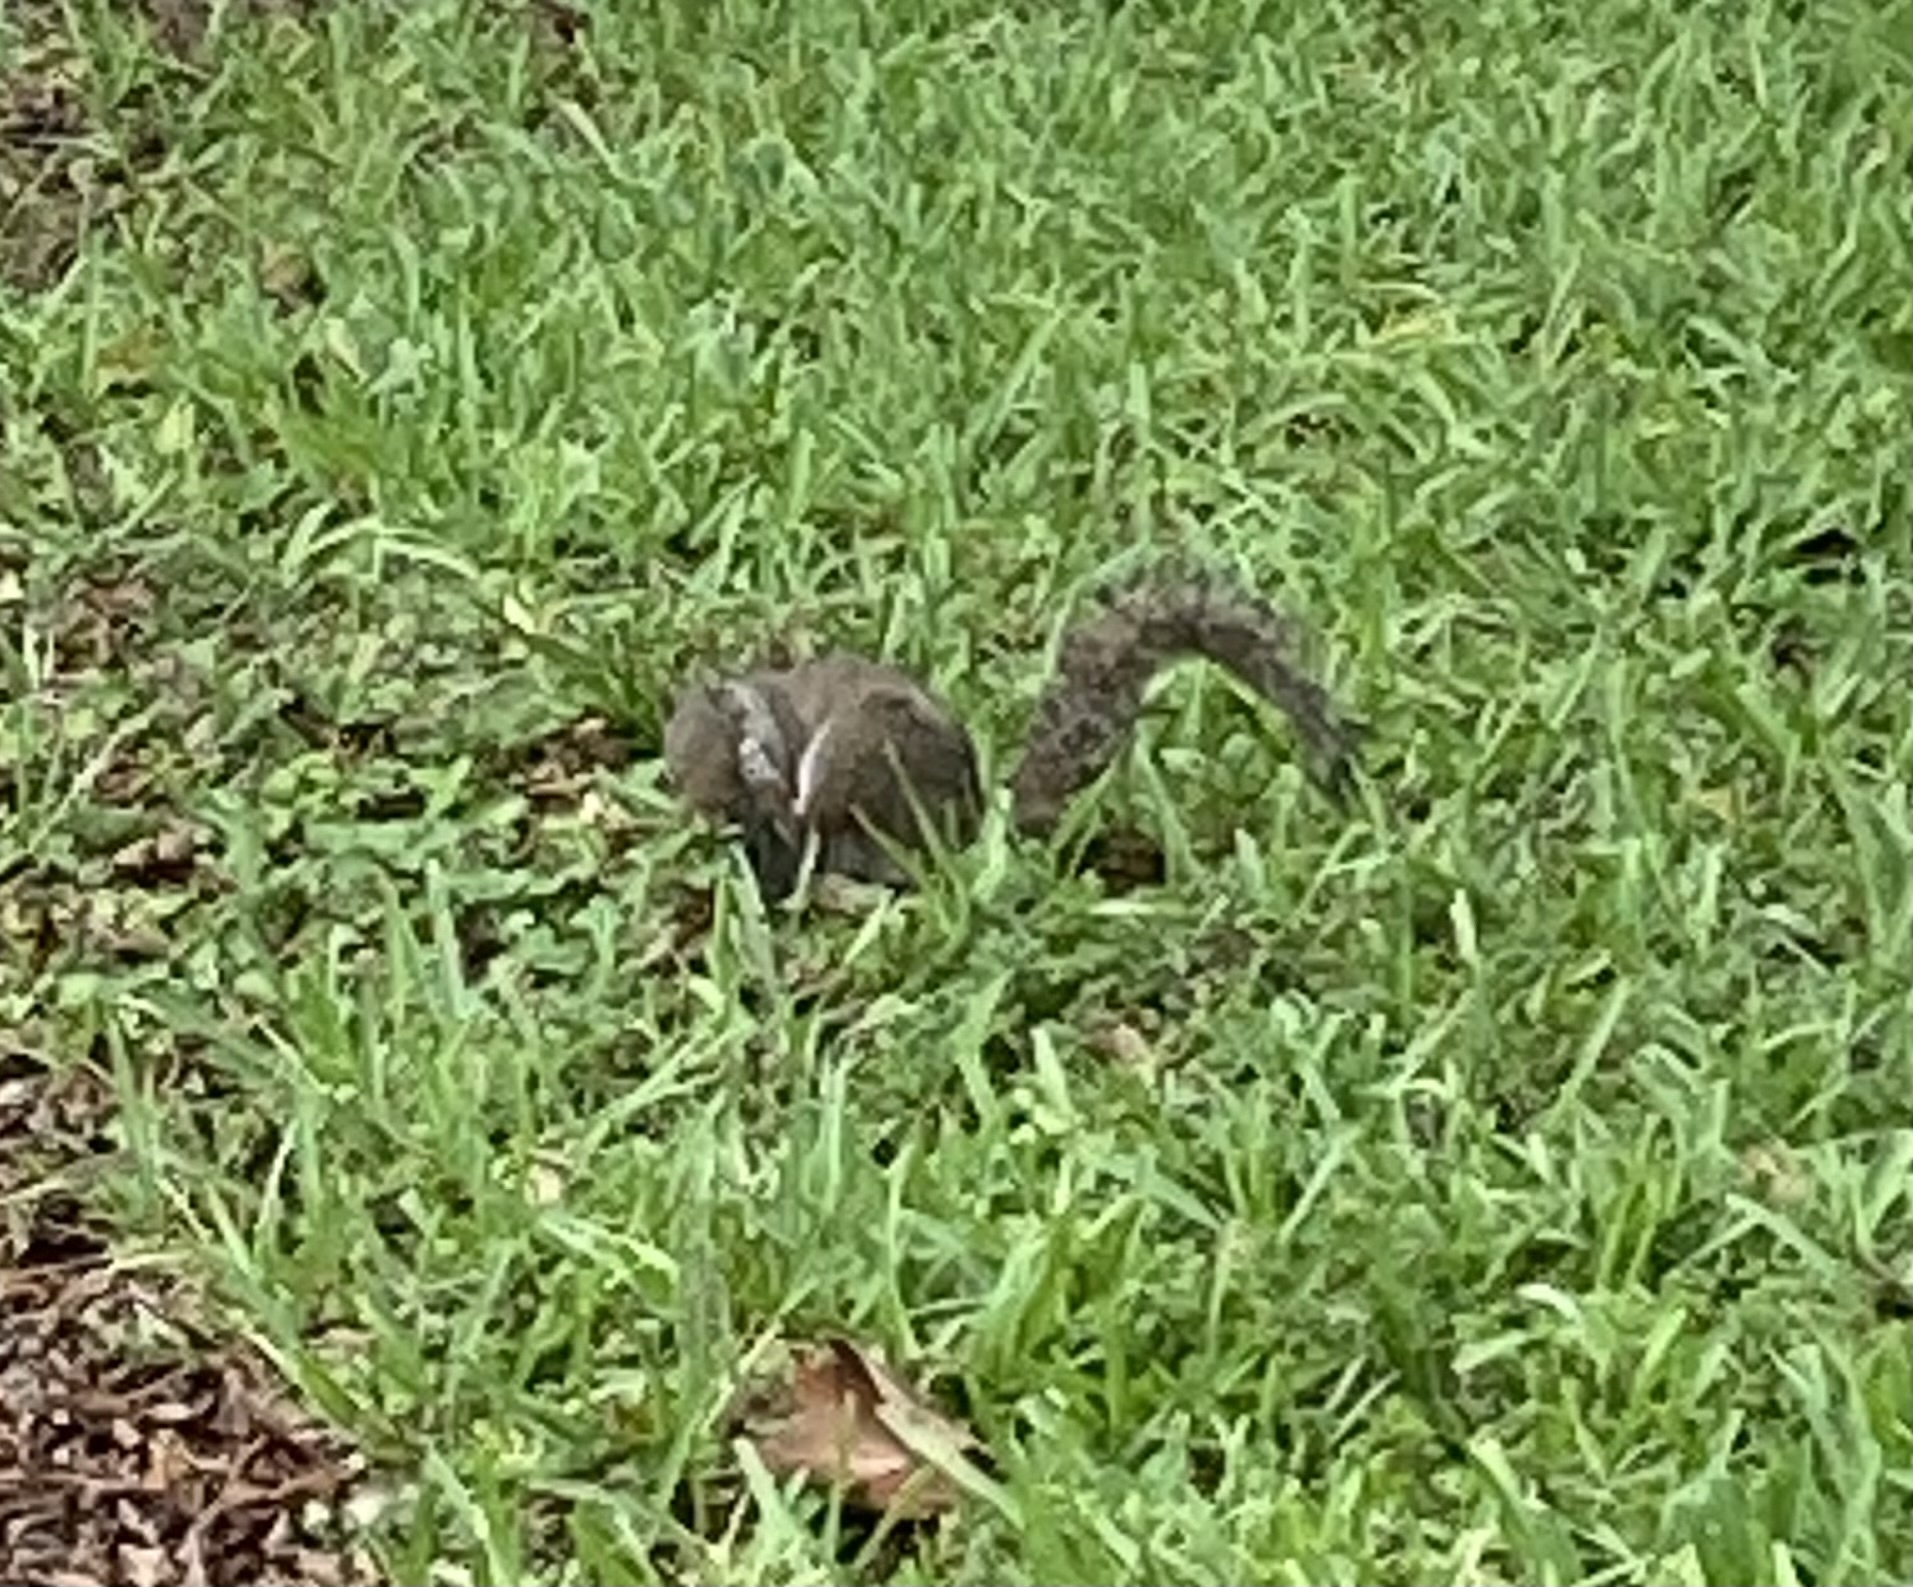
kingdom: Animalia
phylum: Chordata
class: Mammalia
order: Rodentia
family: Sciuridae
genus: Sciurus
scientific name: Sciurus carolinensis
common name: Eastern gray squirrel
